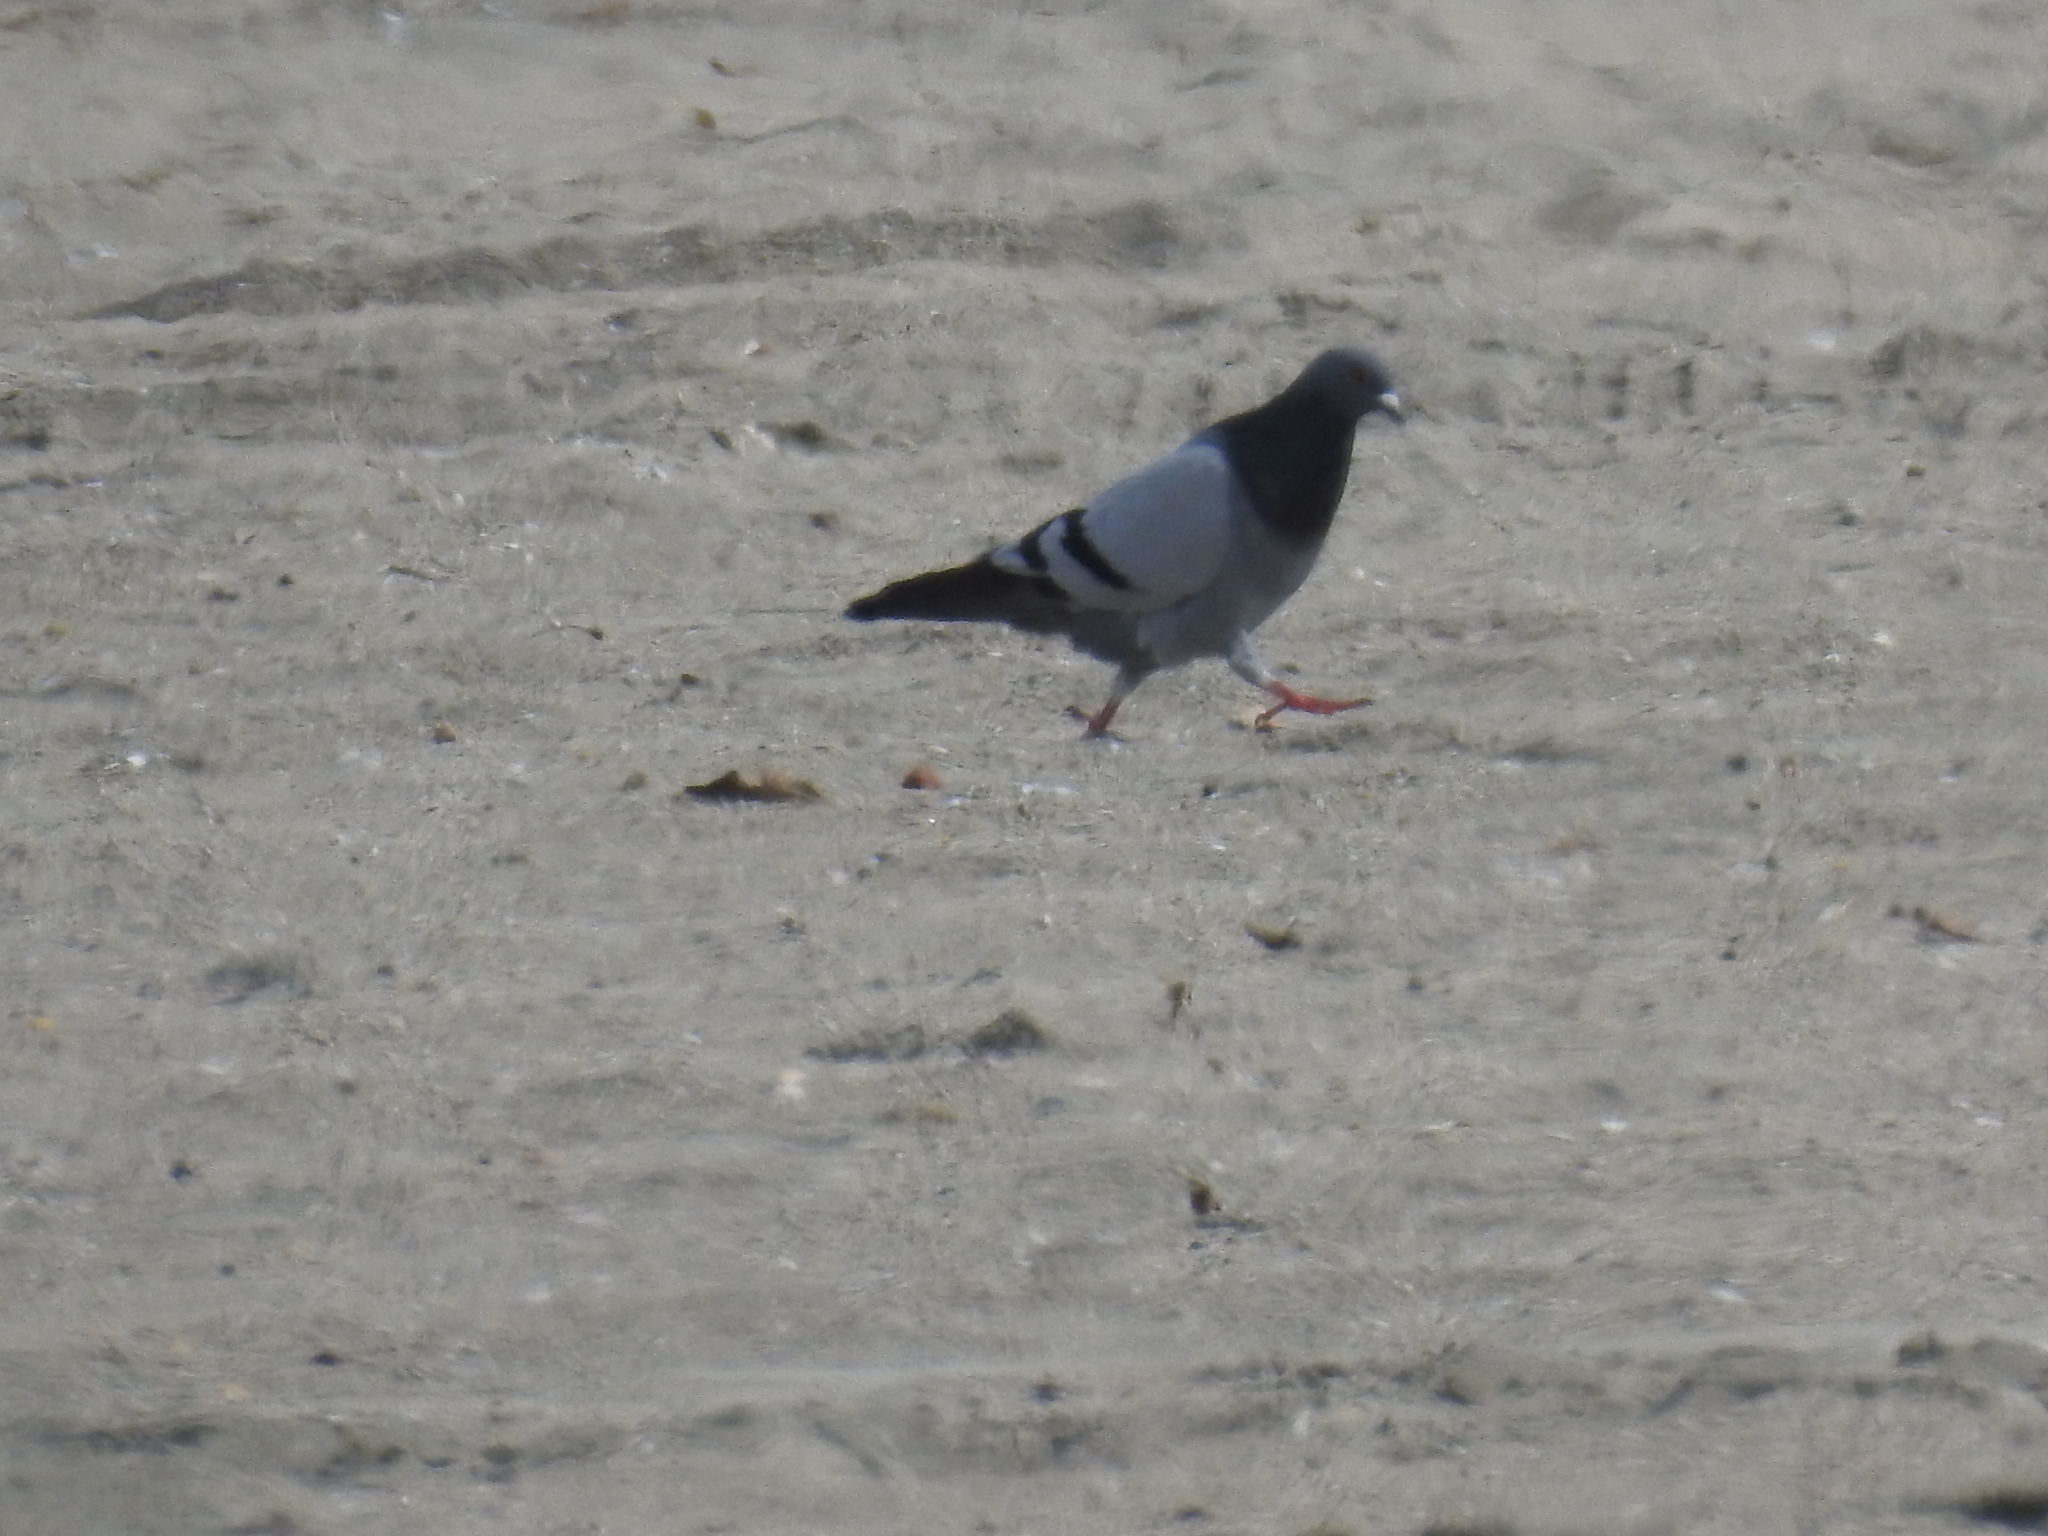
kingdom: Animalia
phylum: Chordata
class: Aves
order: Columbiformes
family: Columbidae
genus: Columba
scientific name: Columba livia
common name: Rock pigeon
